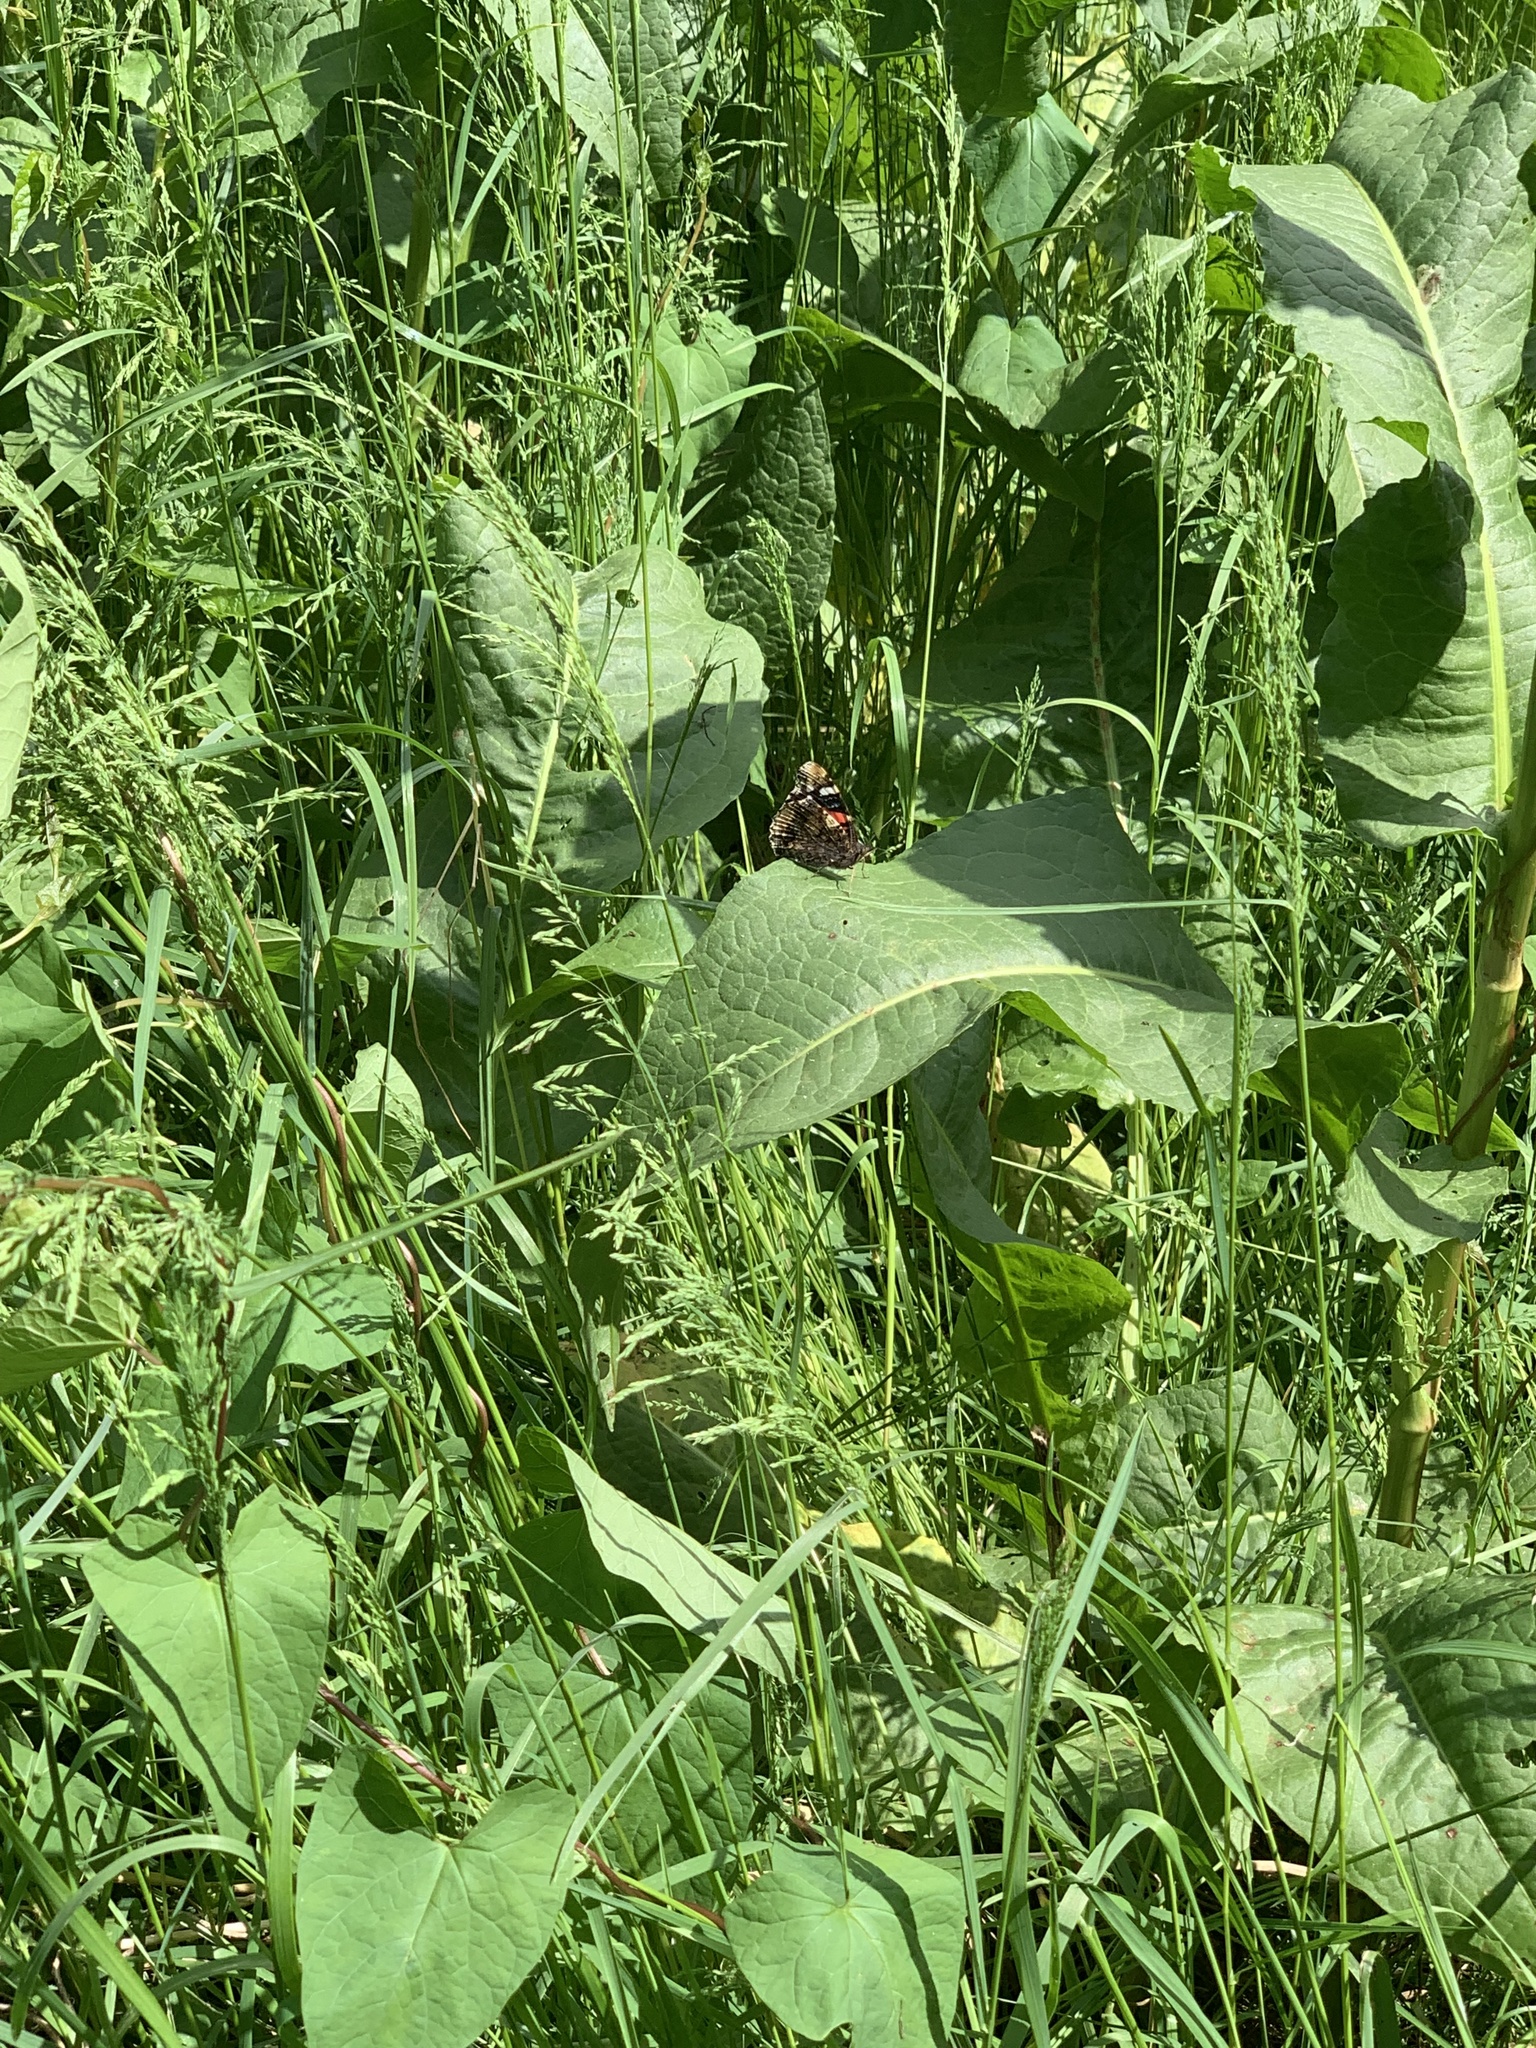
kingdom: Animalia
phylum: Arthropoda
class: Insecta
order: Lepidoptera
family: Nymphalidae
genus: Vanessa
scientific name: Vanessa atalanta
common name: Red admiral
